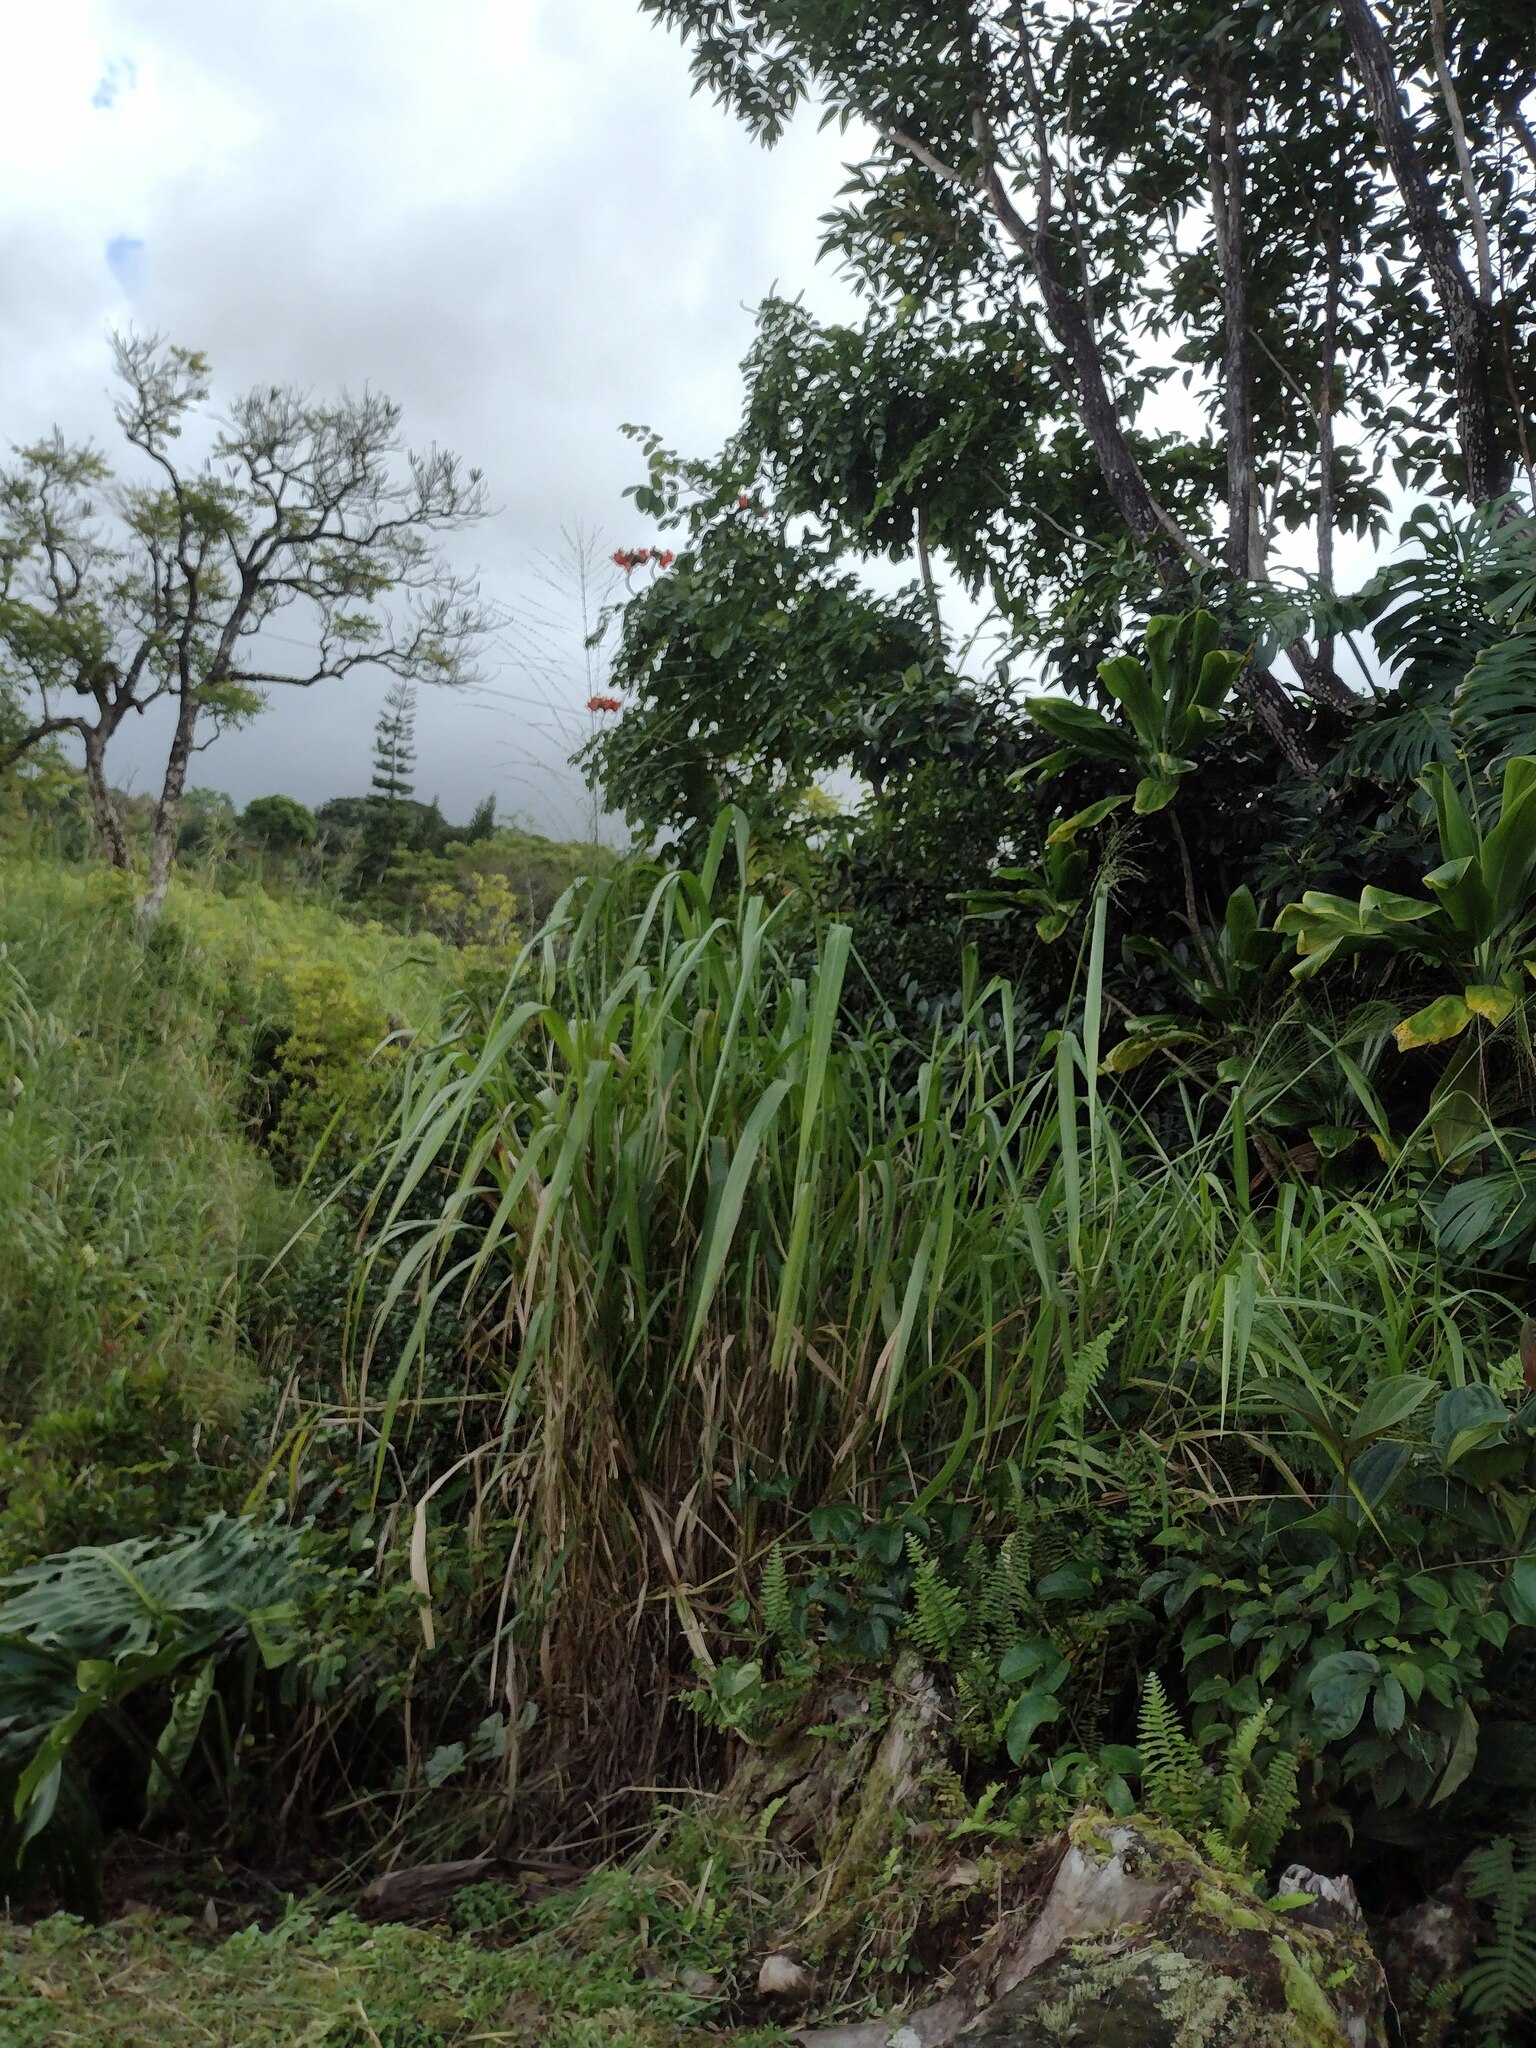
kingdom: Plantae
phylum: Tracheophyta
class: Liliopsida
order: Poales
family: Poaceae
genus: Megathyrsus
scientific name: Megathyrsus maximus
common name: Guineagrass
